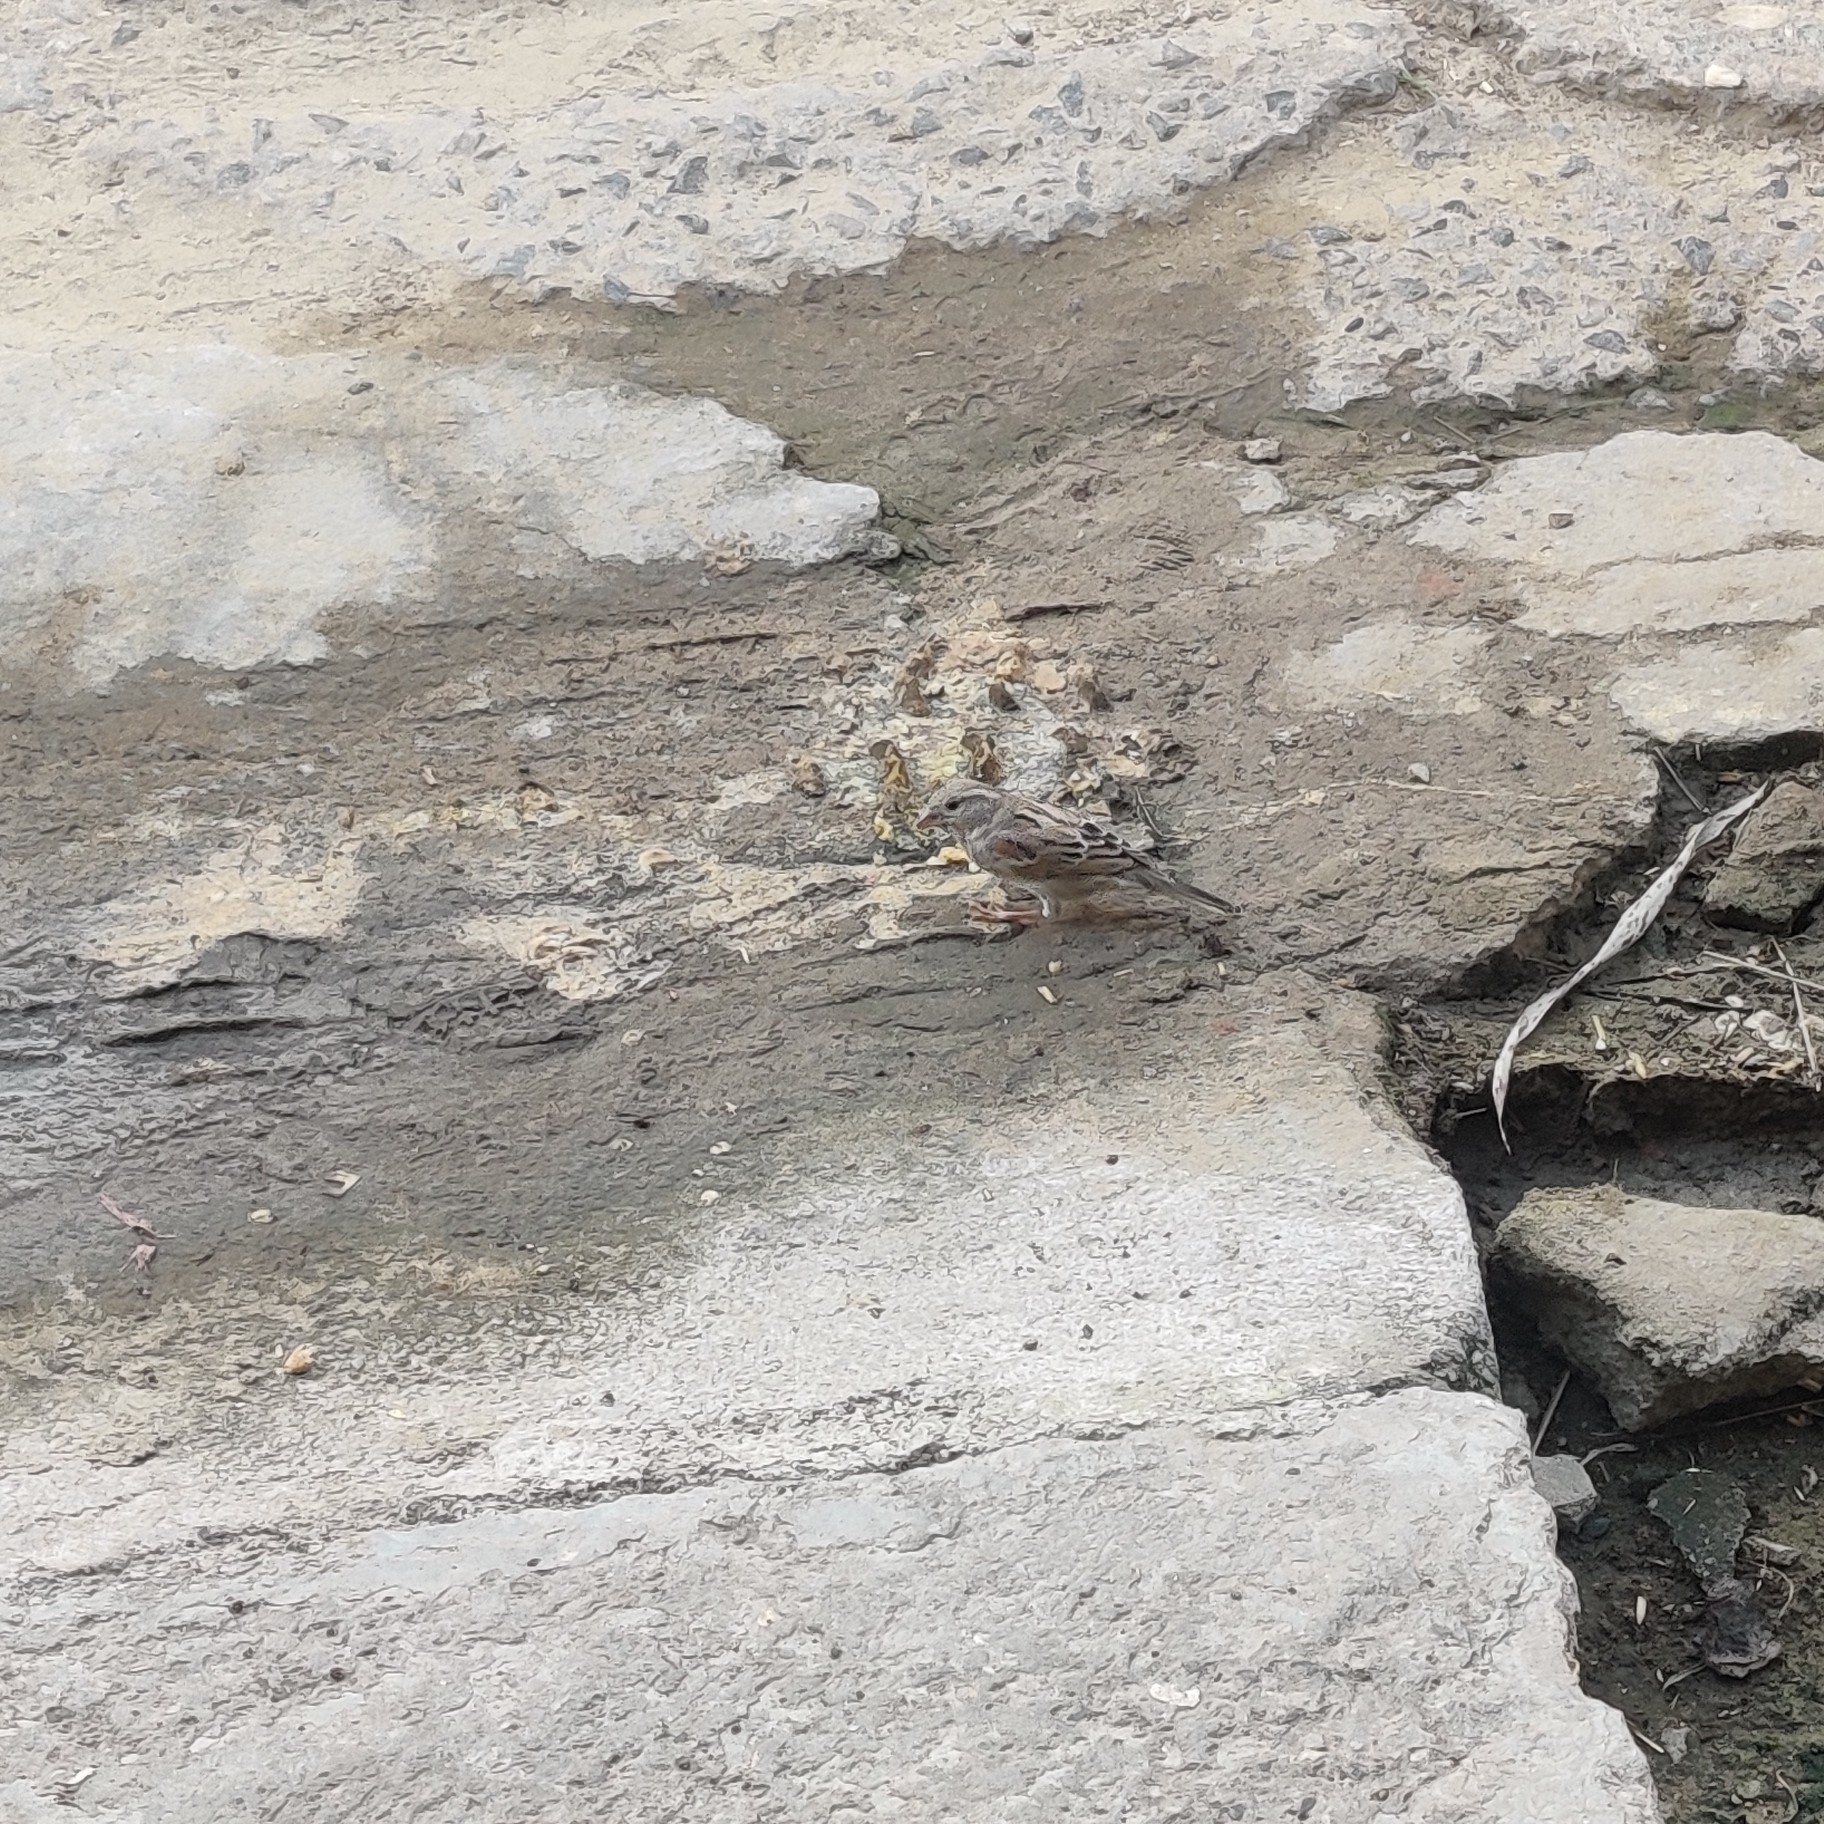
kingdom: Animalia
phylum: Chordata
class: Aves
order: Passeriformes
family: Passeridae
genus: Passer
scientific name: Passer domesticus
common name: House sparrow
